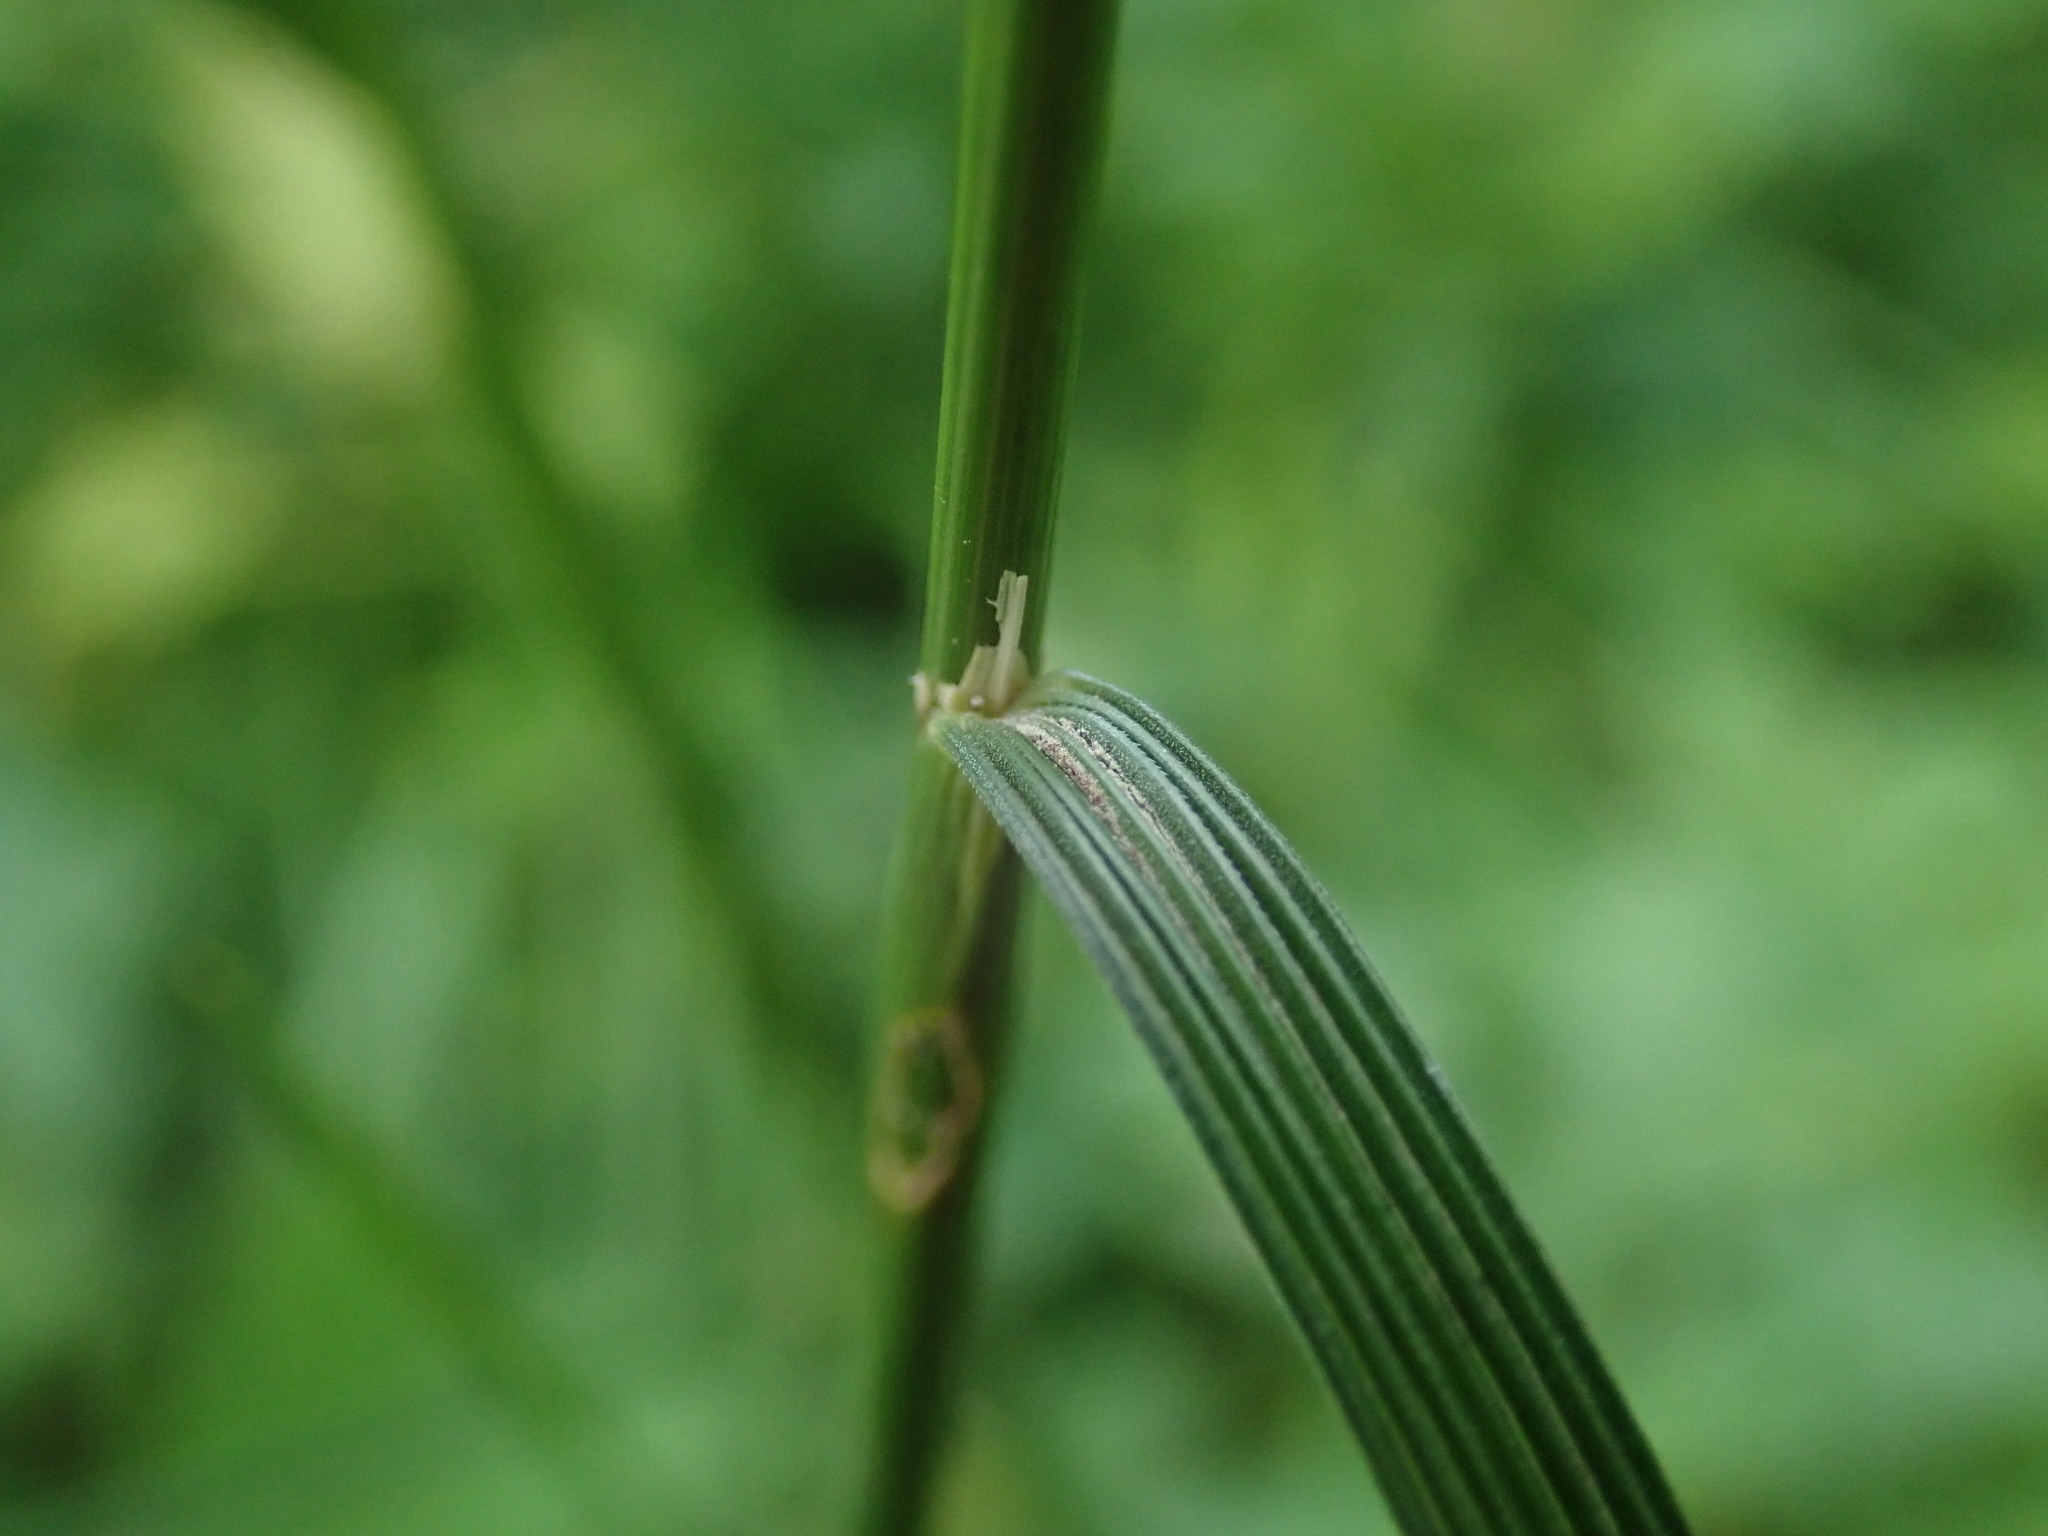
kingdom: Plantae
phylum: Tracheophyta
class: Liliopsida
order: Poales
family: Poaceae
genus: Deschampsia
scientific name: Deschampsia cespitosa
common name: Tufted hair-grass
